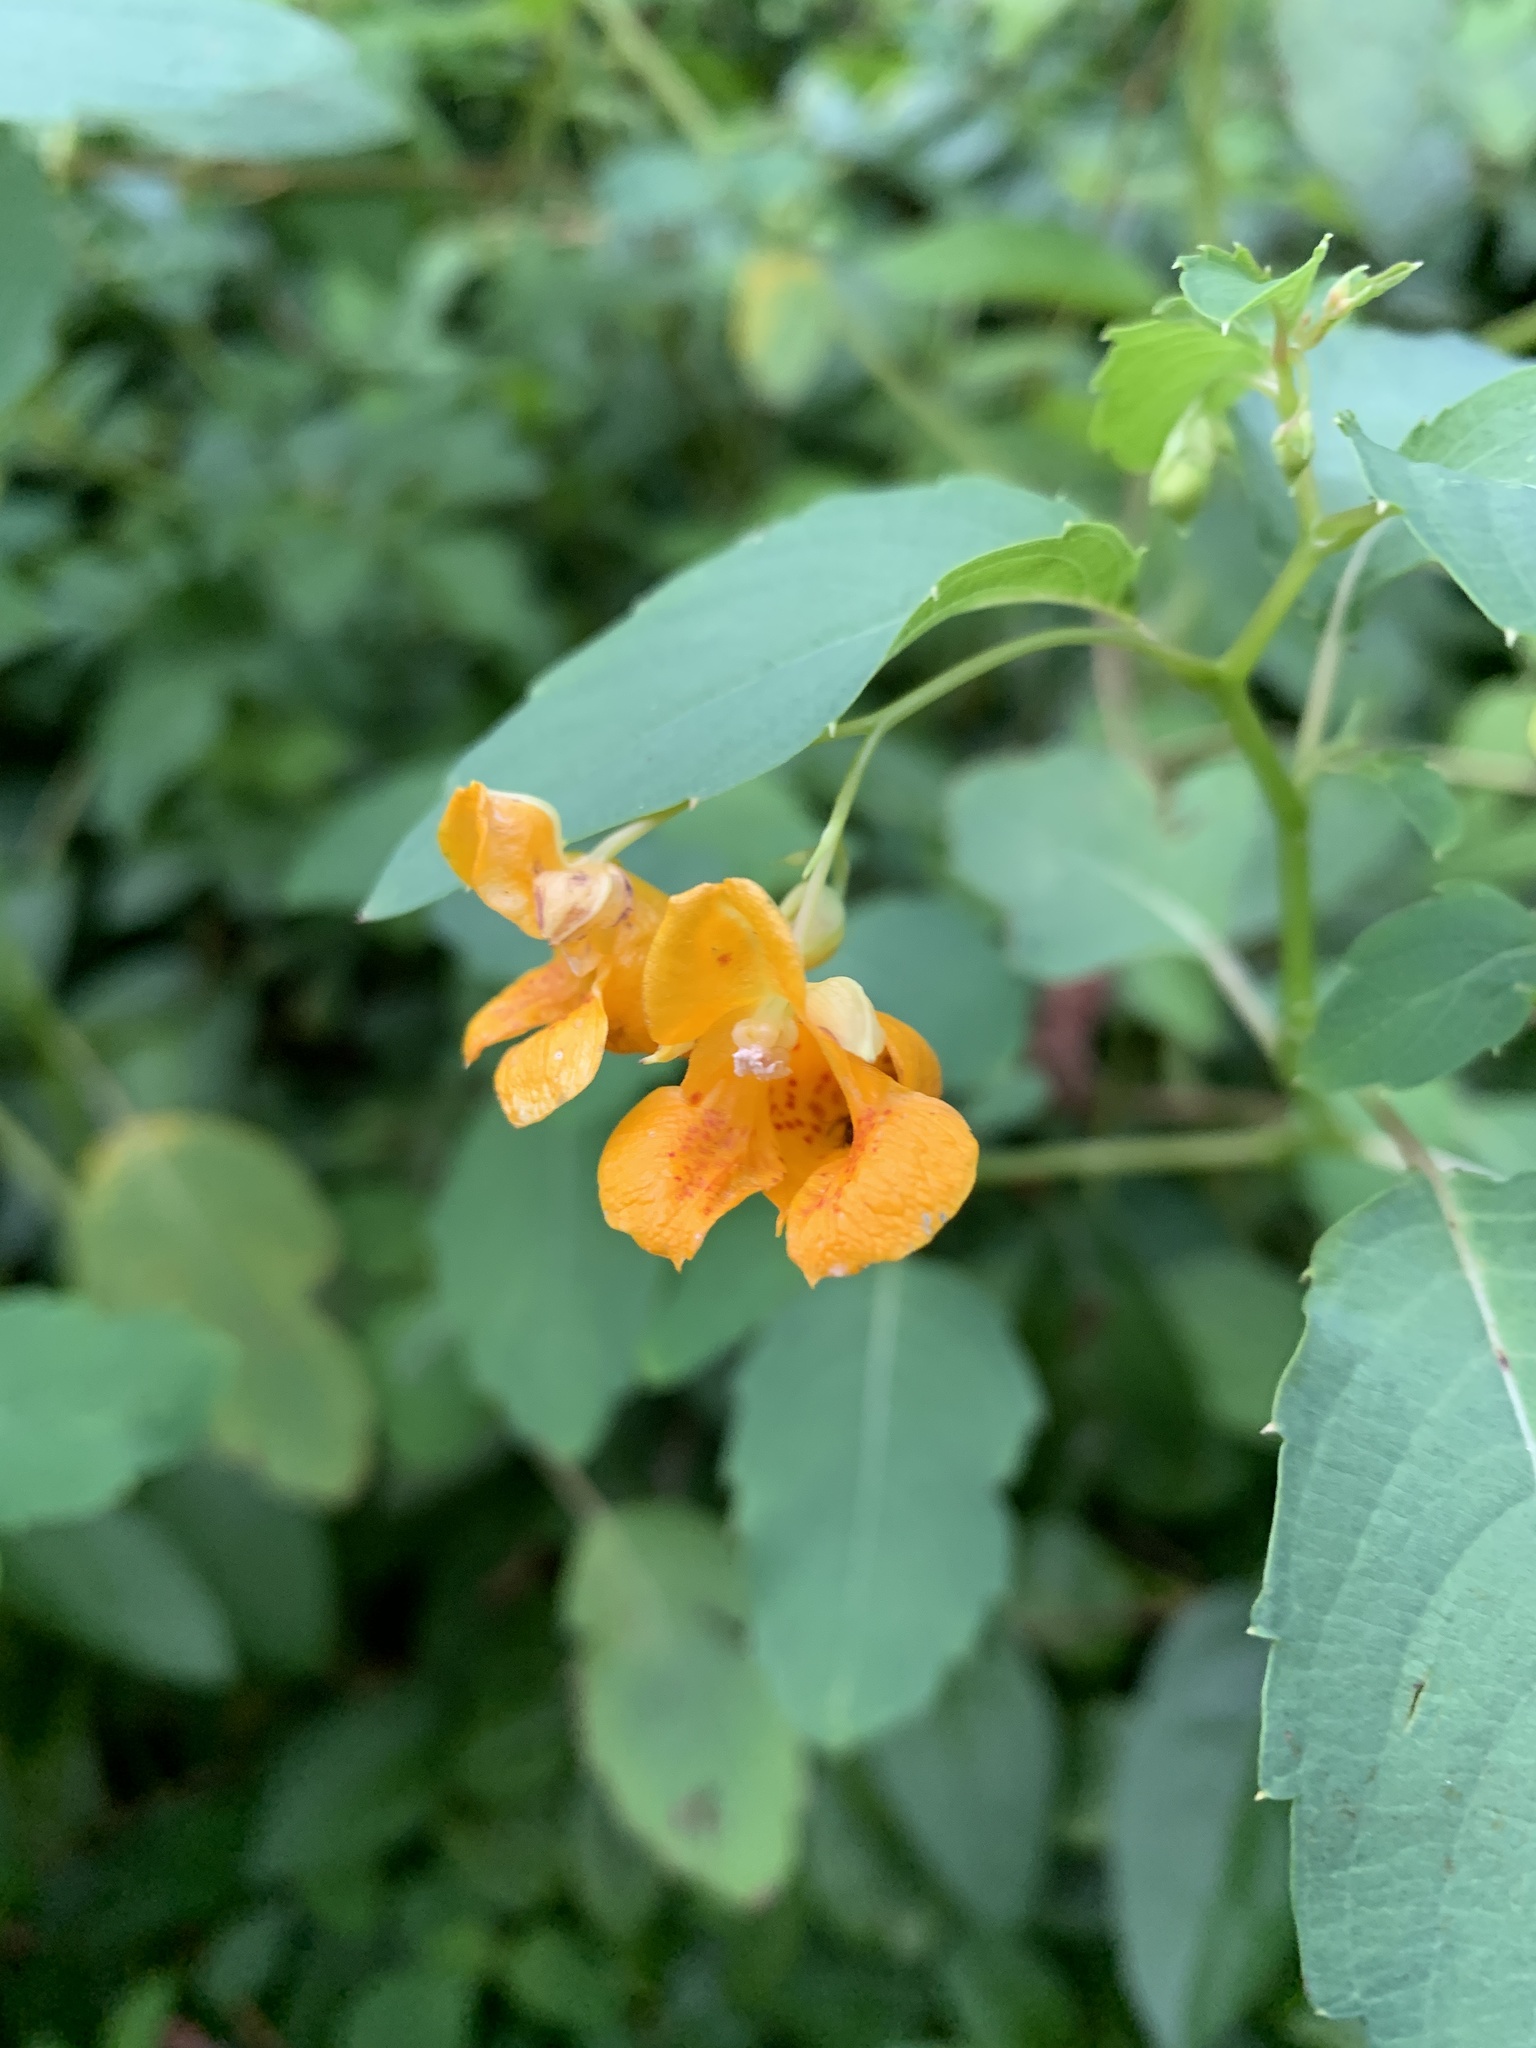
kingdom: Plantae
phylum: Tracheophyta
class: Magnoliopsida
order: Ericales
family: Balsaminaceae
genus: Impatiens
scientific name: Impatiens capensis
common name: Orange balsam
